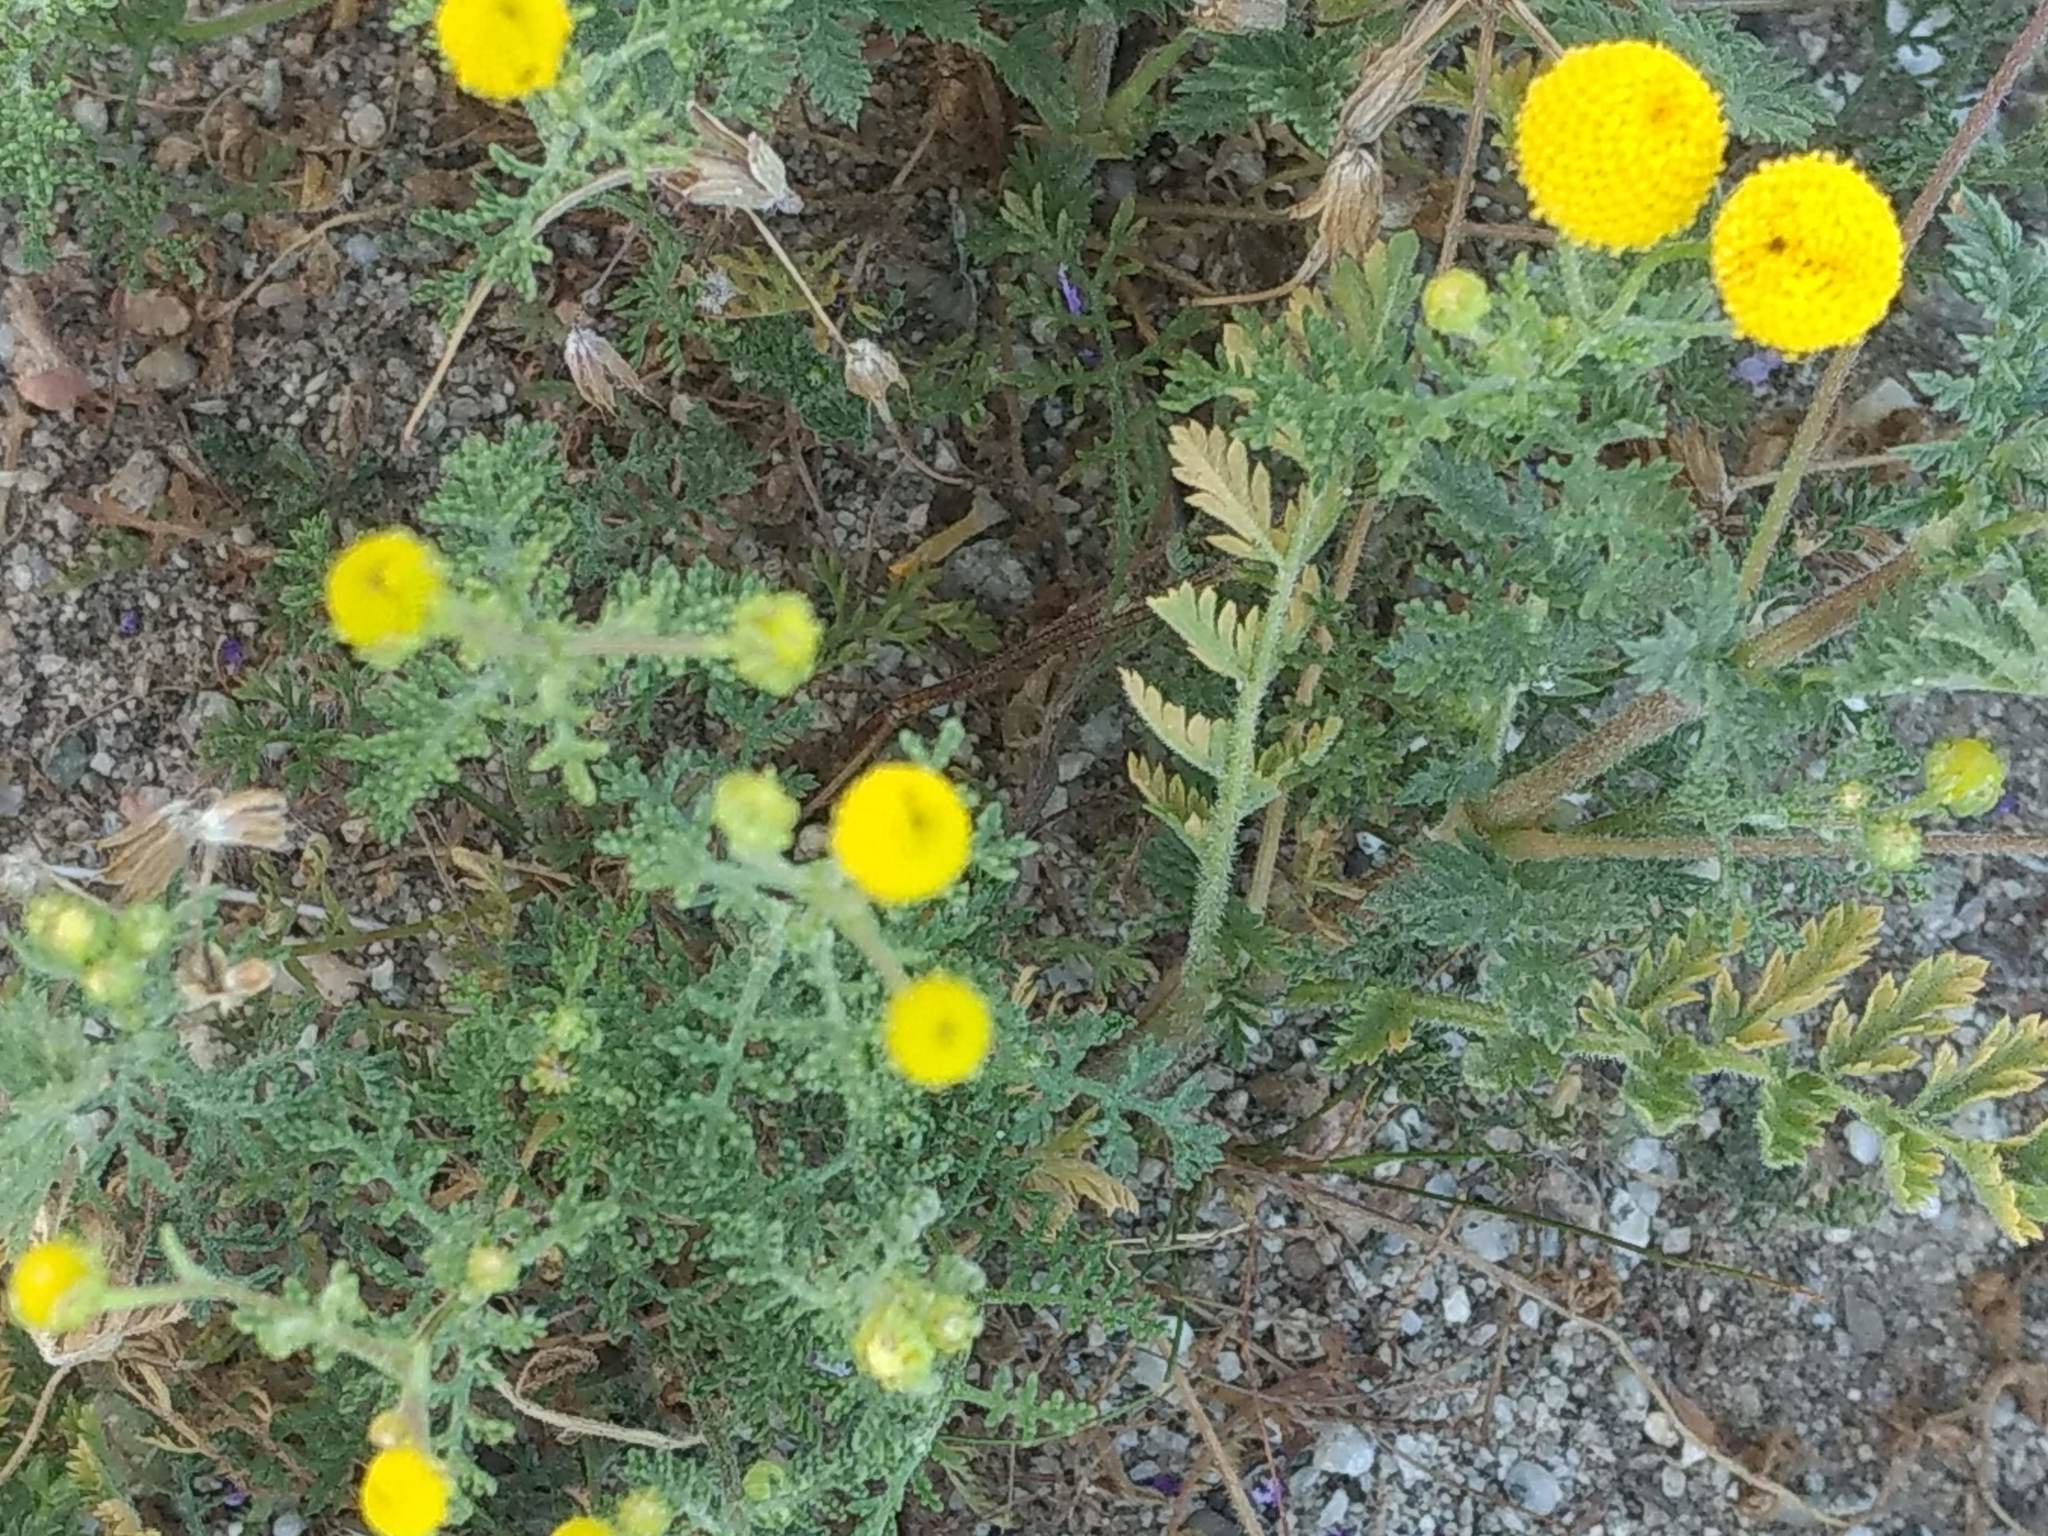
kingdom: Plantae
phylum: Tracheophyta
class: Magnoliopsida
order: Asterales
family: Asteraceae
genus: Oncosiphon
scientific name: Oncosiphon pilulifer
